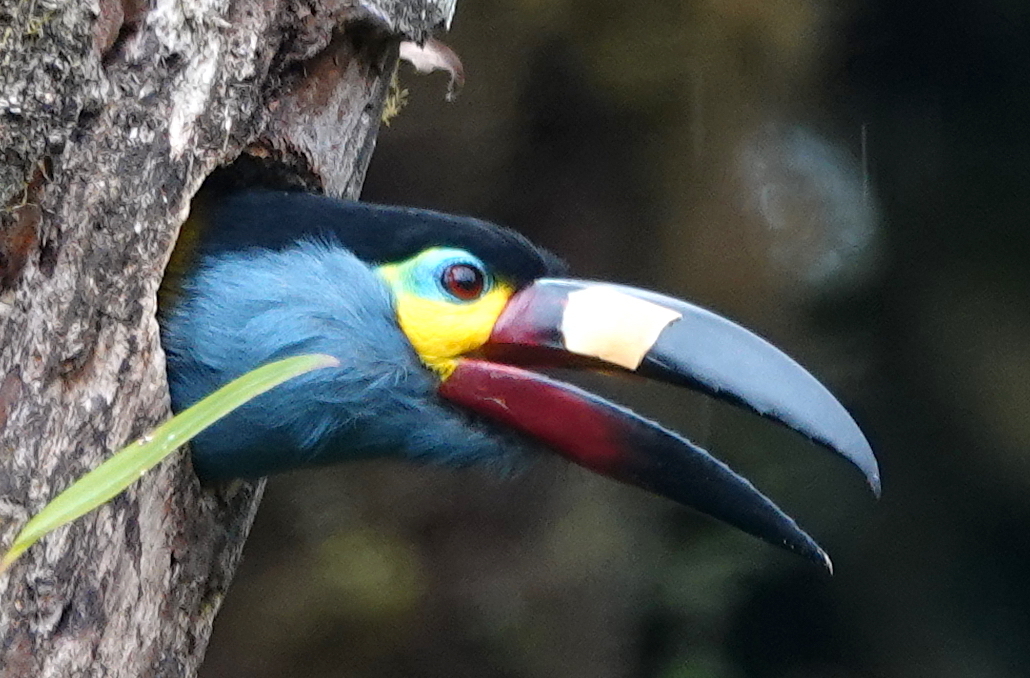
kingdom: Animalia
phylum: Chordata
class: Aves
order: Piciformes
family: Ramphastidae
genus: Andigena
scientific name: Andigena laminirostris
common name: Plate-billed mountain toucan
